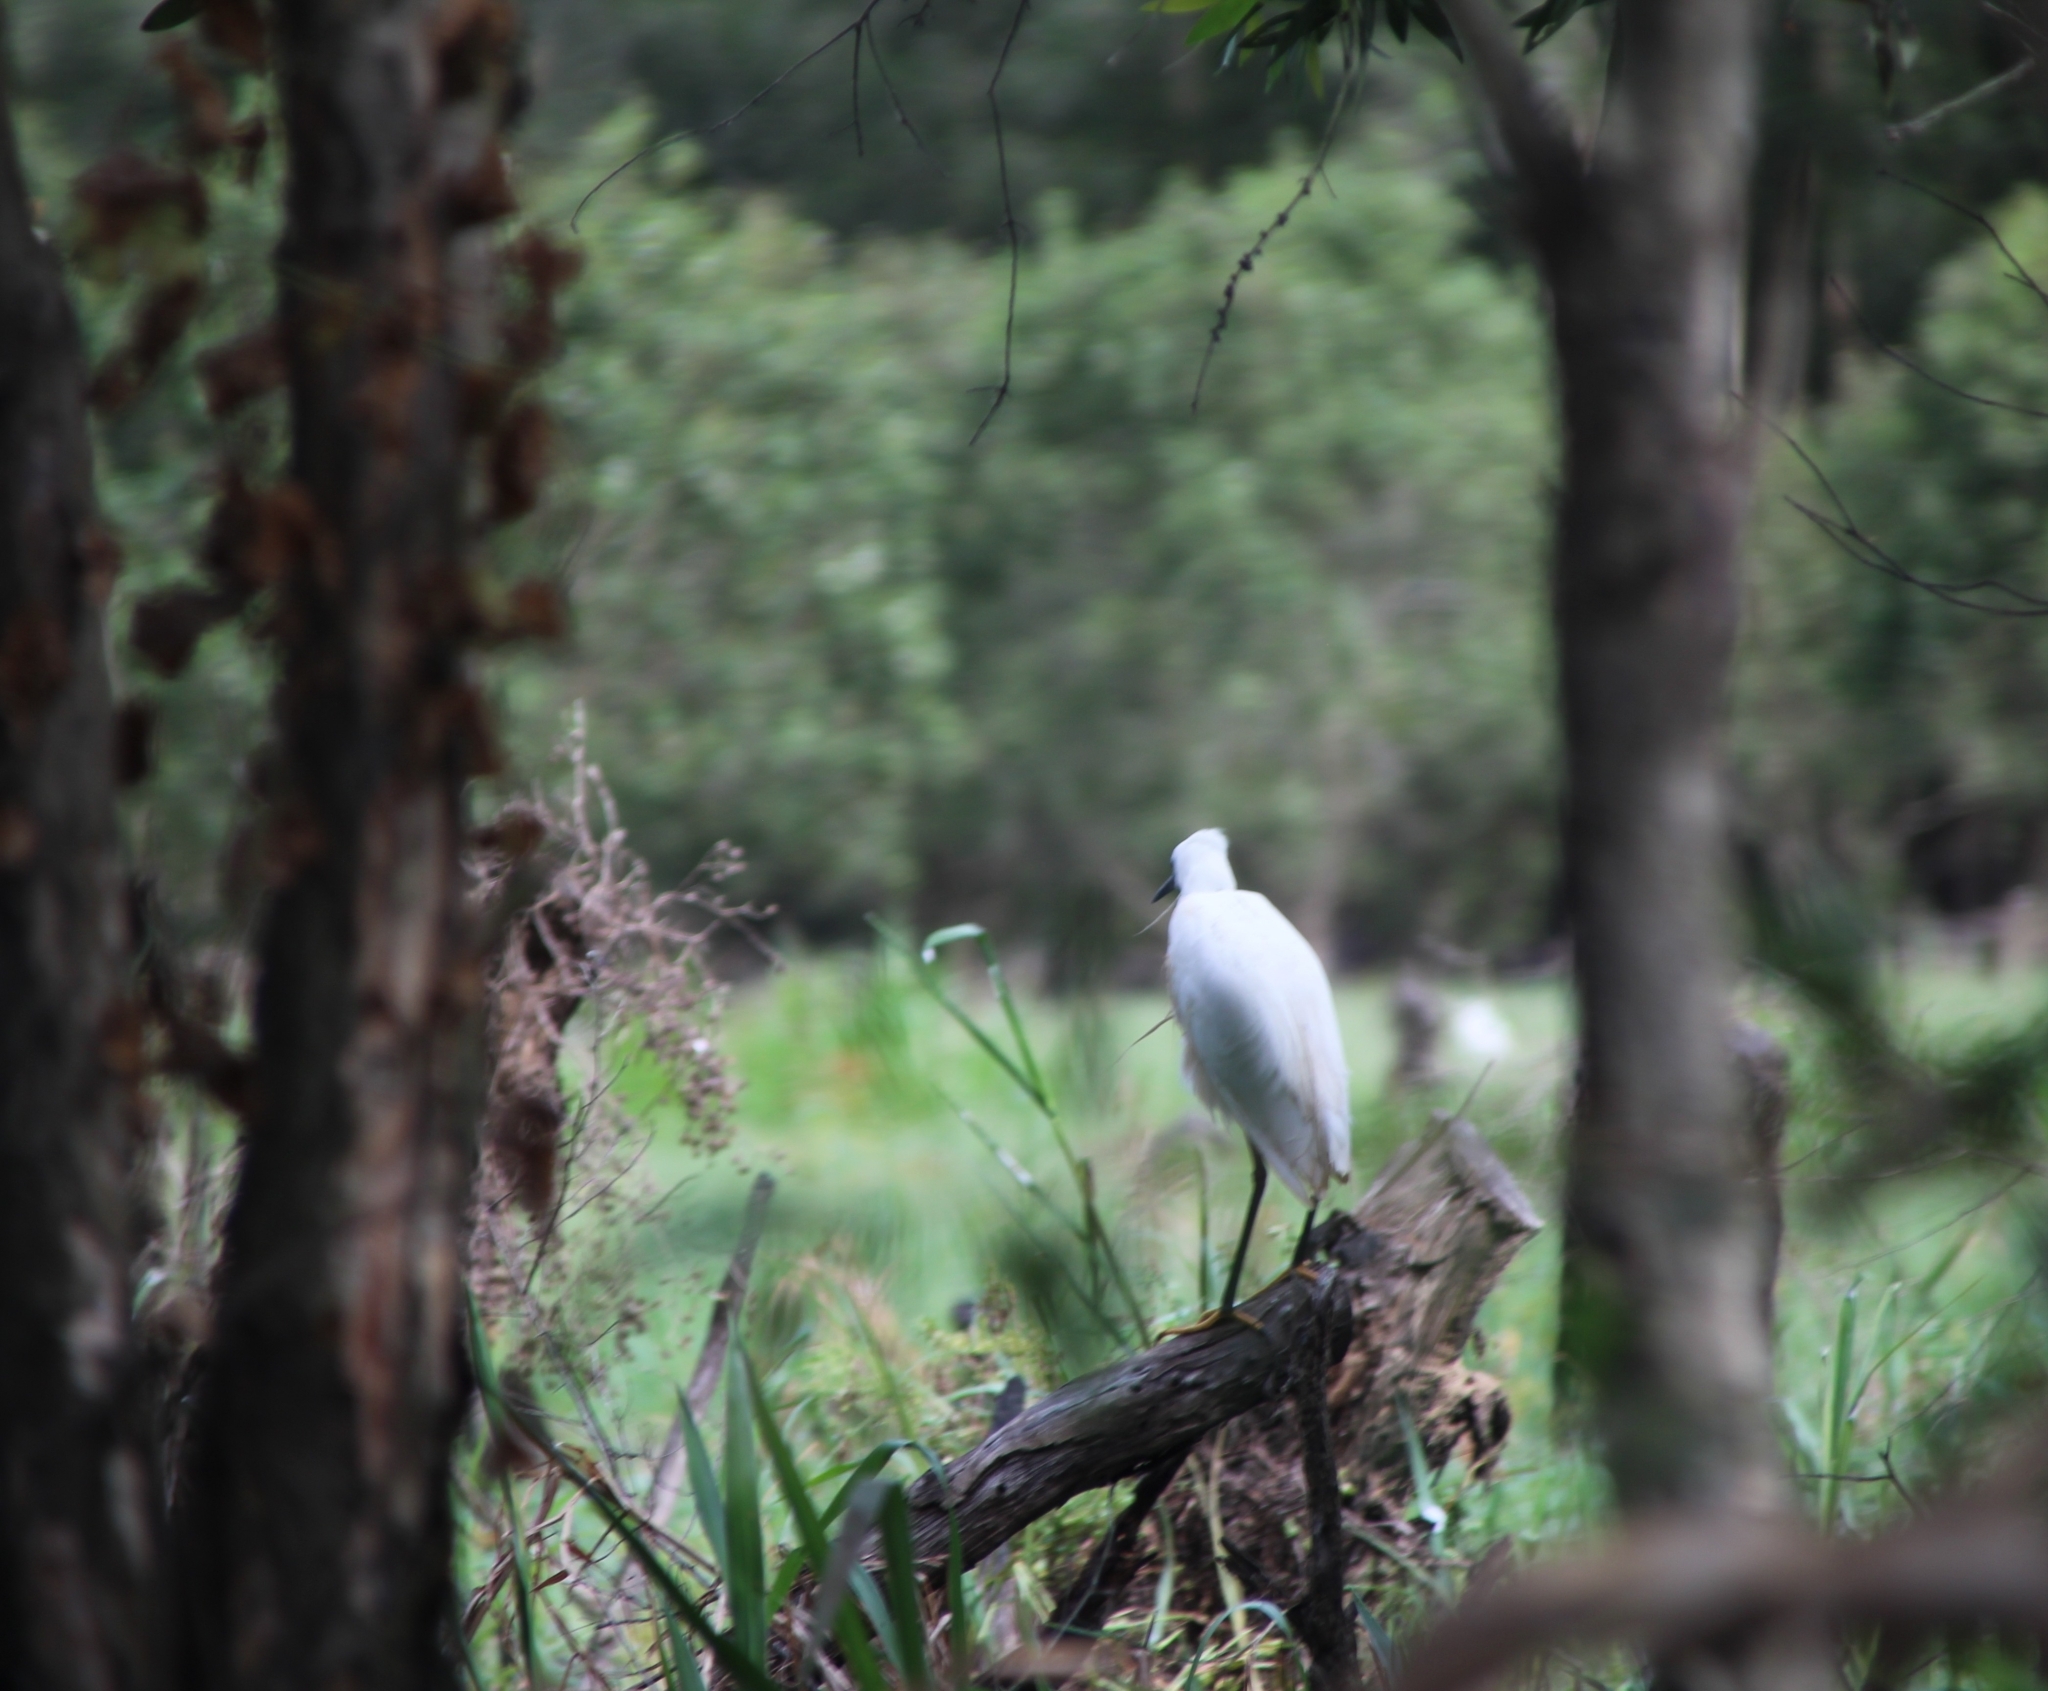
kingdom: Animalia
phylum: Chordata
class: Aves
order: Pelecaniformes
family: Ardeidae
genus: Egretta
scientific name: Egretta garzetta
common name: Little egret
